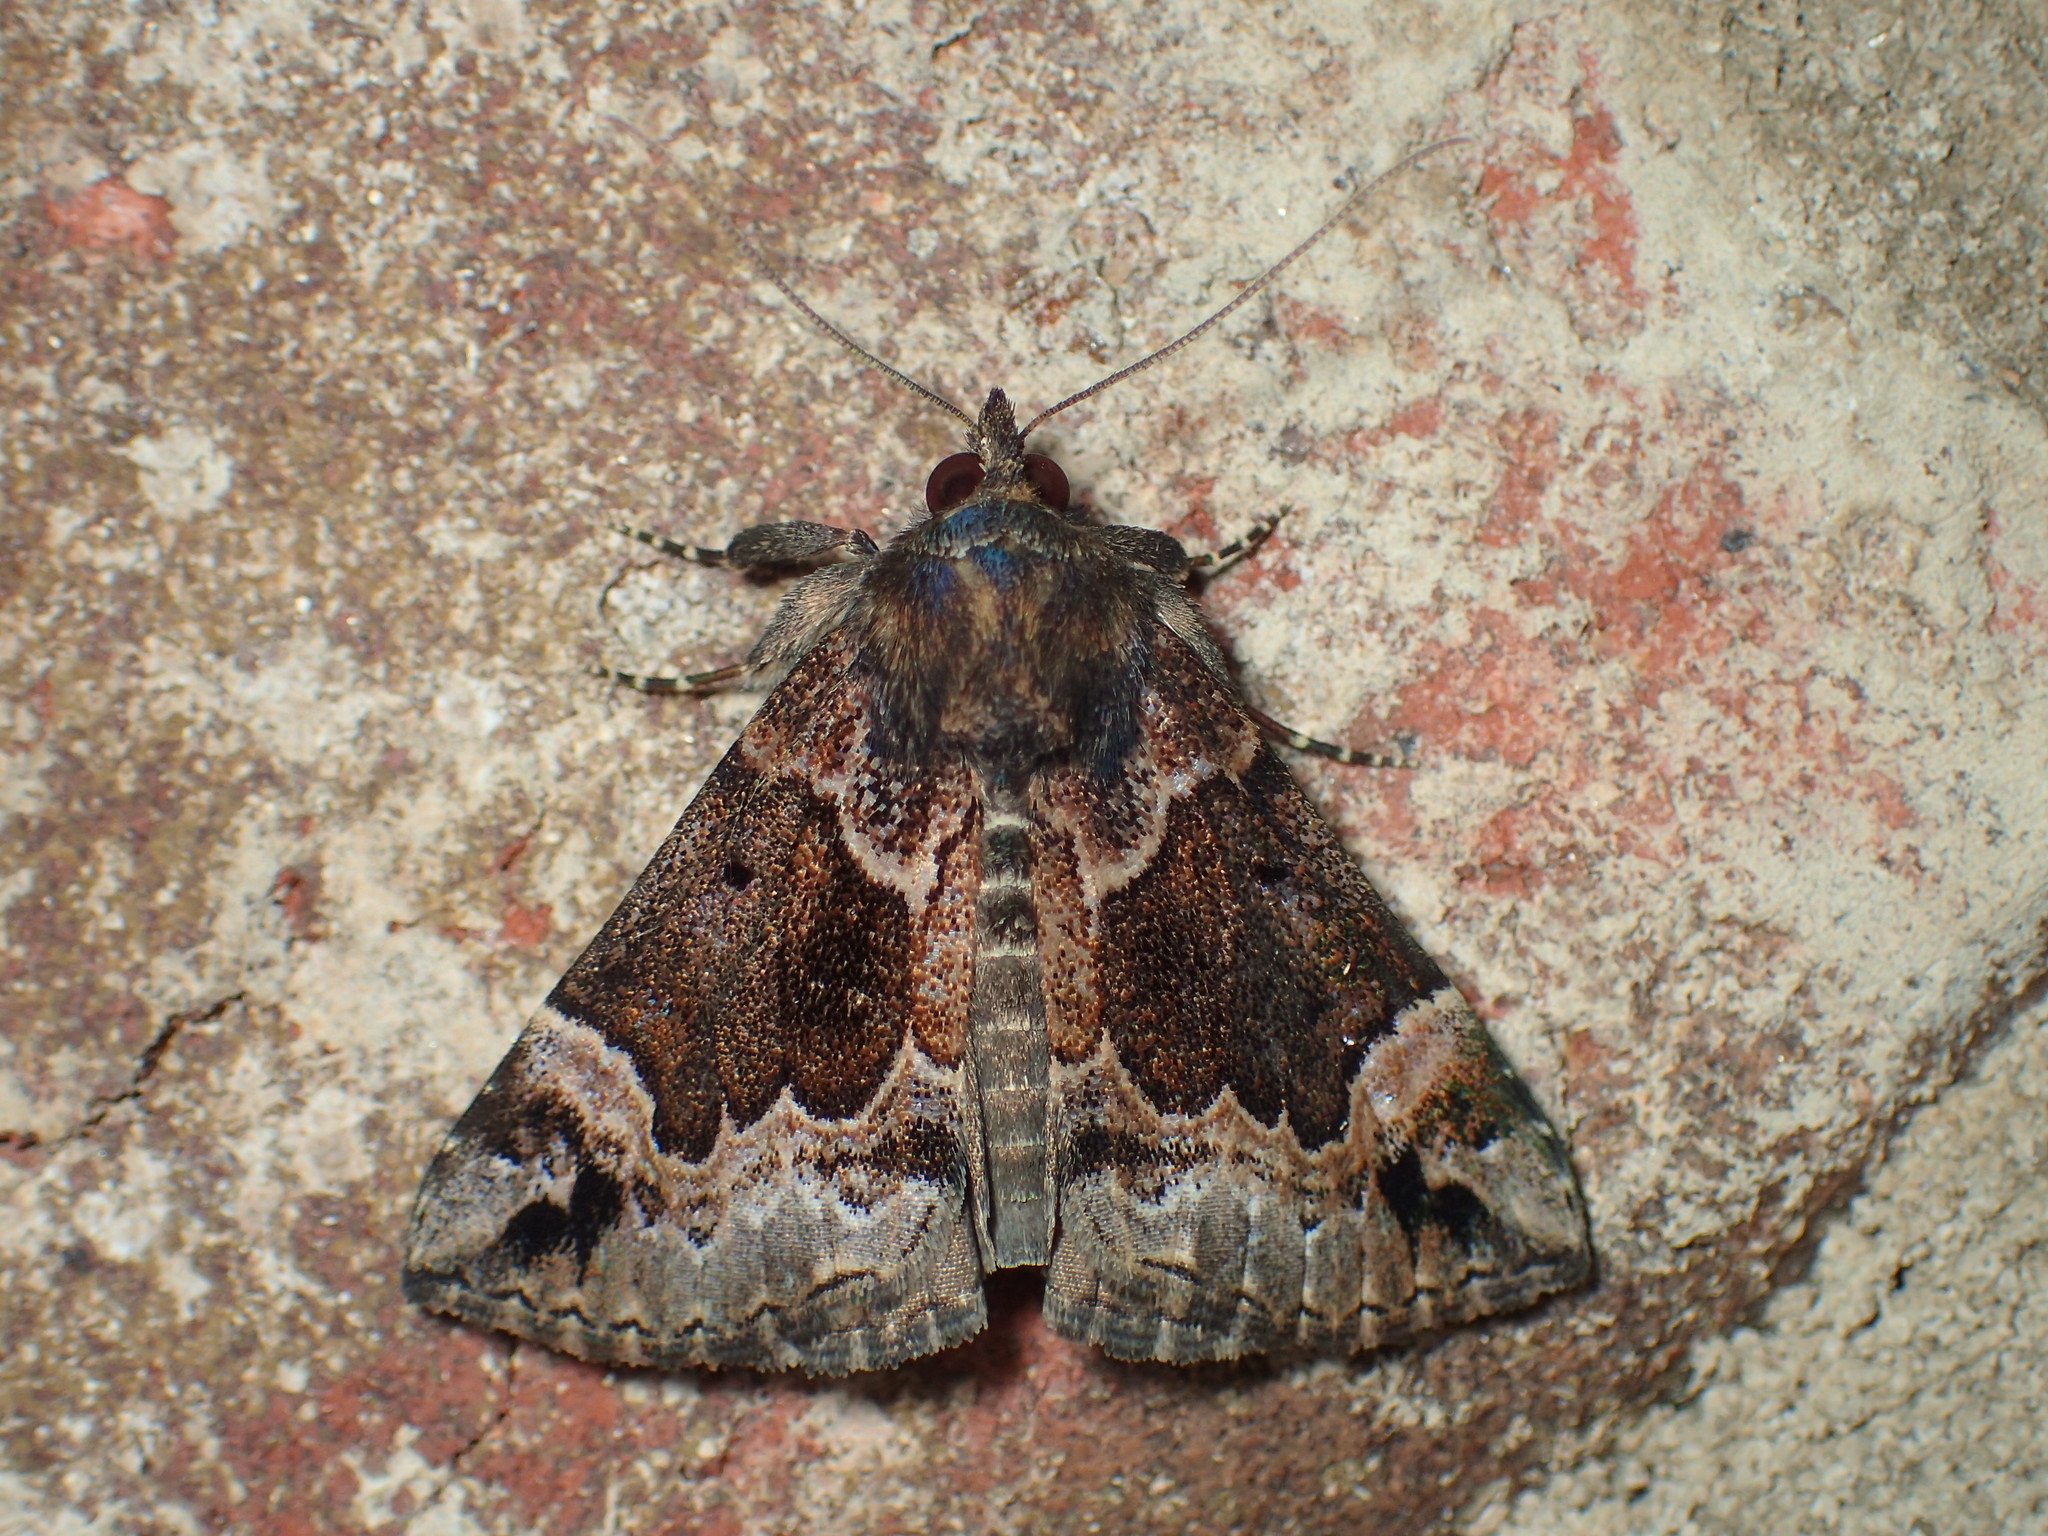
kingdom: Animalia
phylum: Arthropoda
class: Insecta
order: Lepidoptera
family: Erebidae
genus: Hypena
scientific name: Hypena palparia
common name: Mottled bomolocha moth
